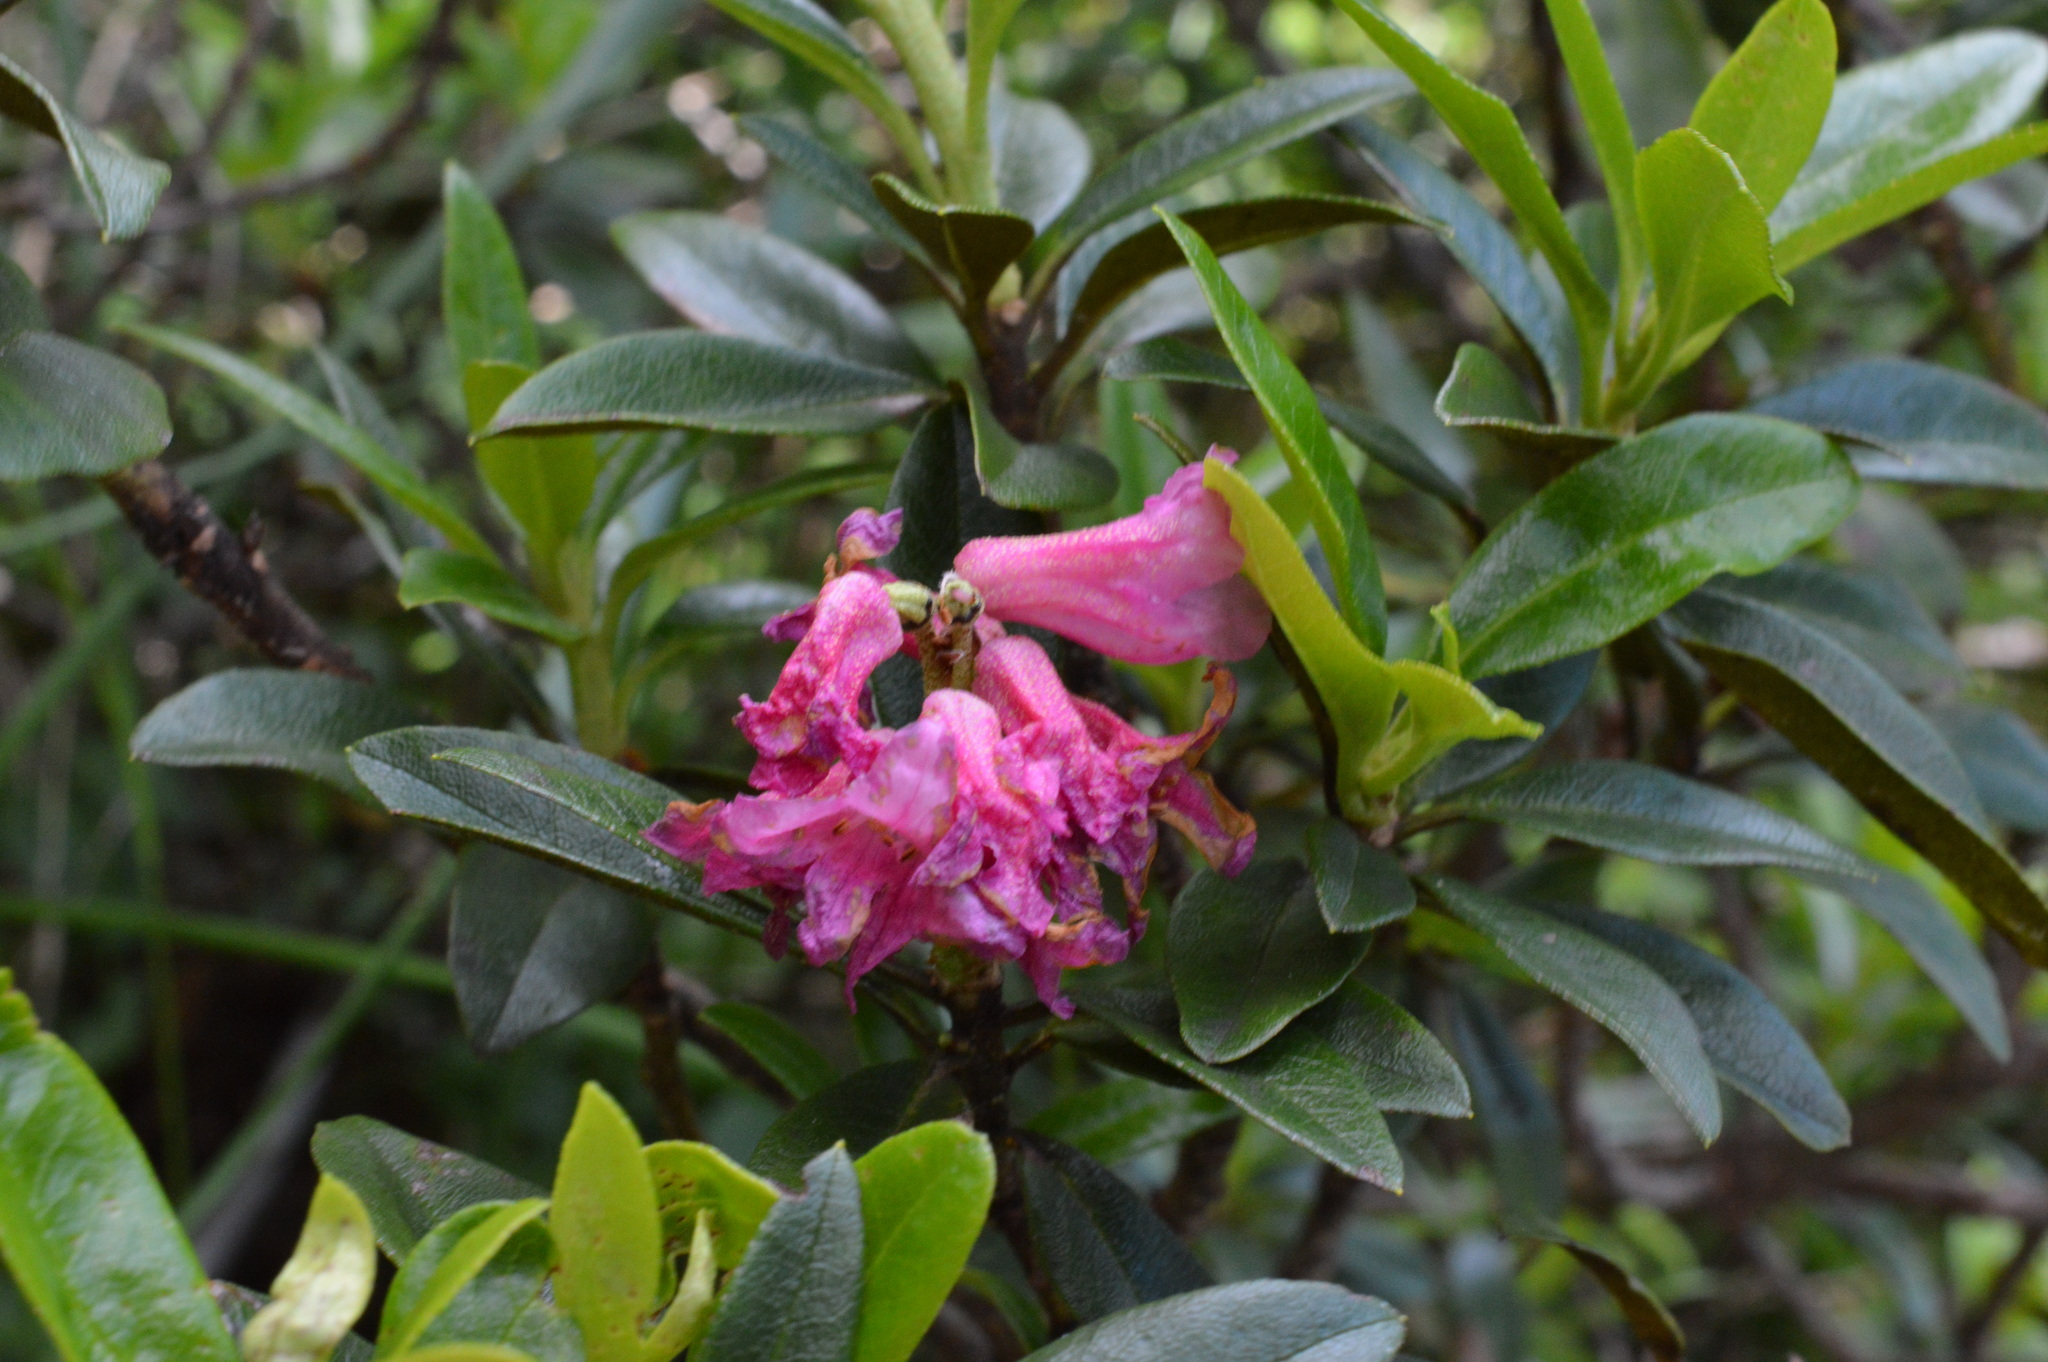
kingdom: Plantae
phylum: Tracheophyta
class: Magnoliopsida
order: Ericales
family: Ericaceae
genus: Rhododendron
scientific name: Rhododendron ferrugineum
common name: Alpenrose
